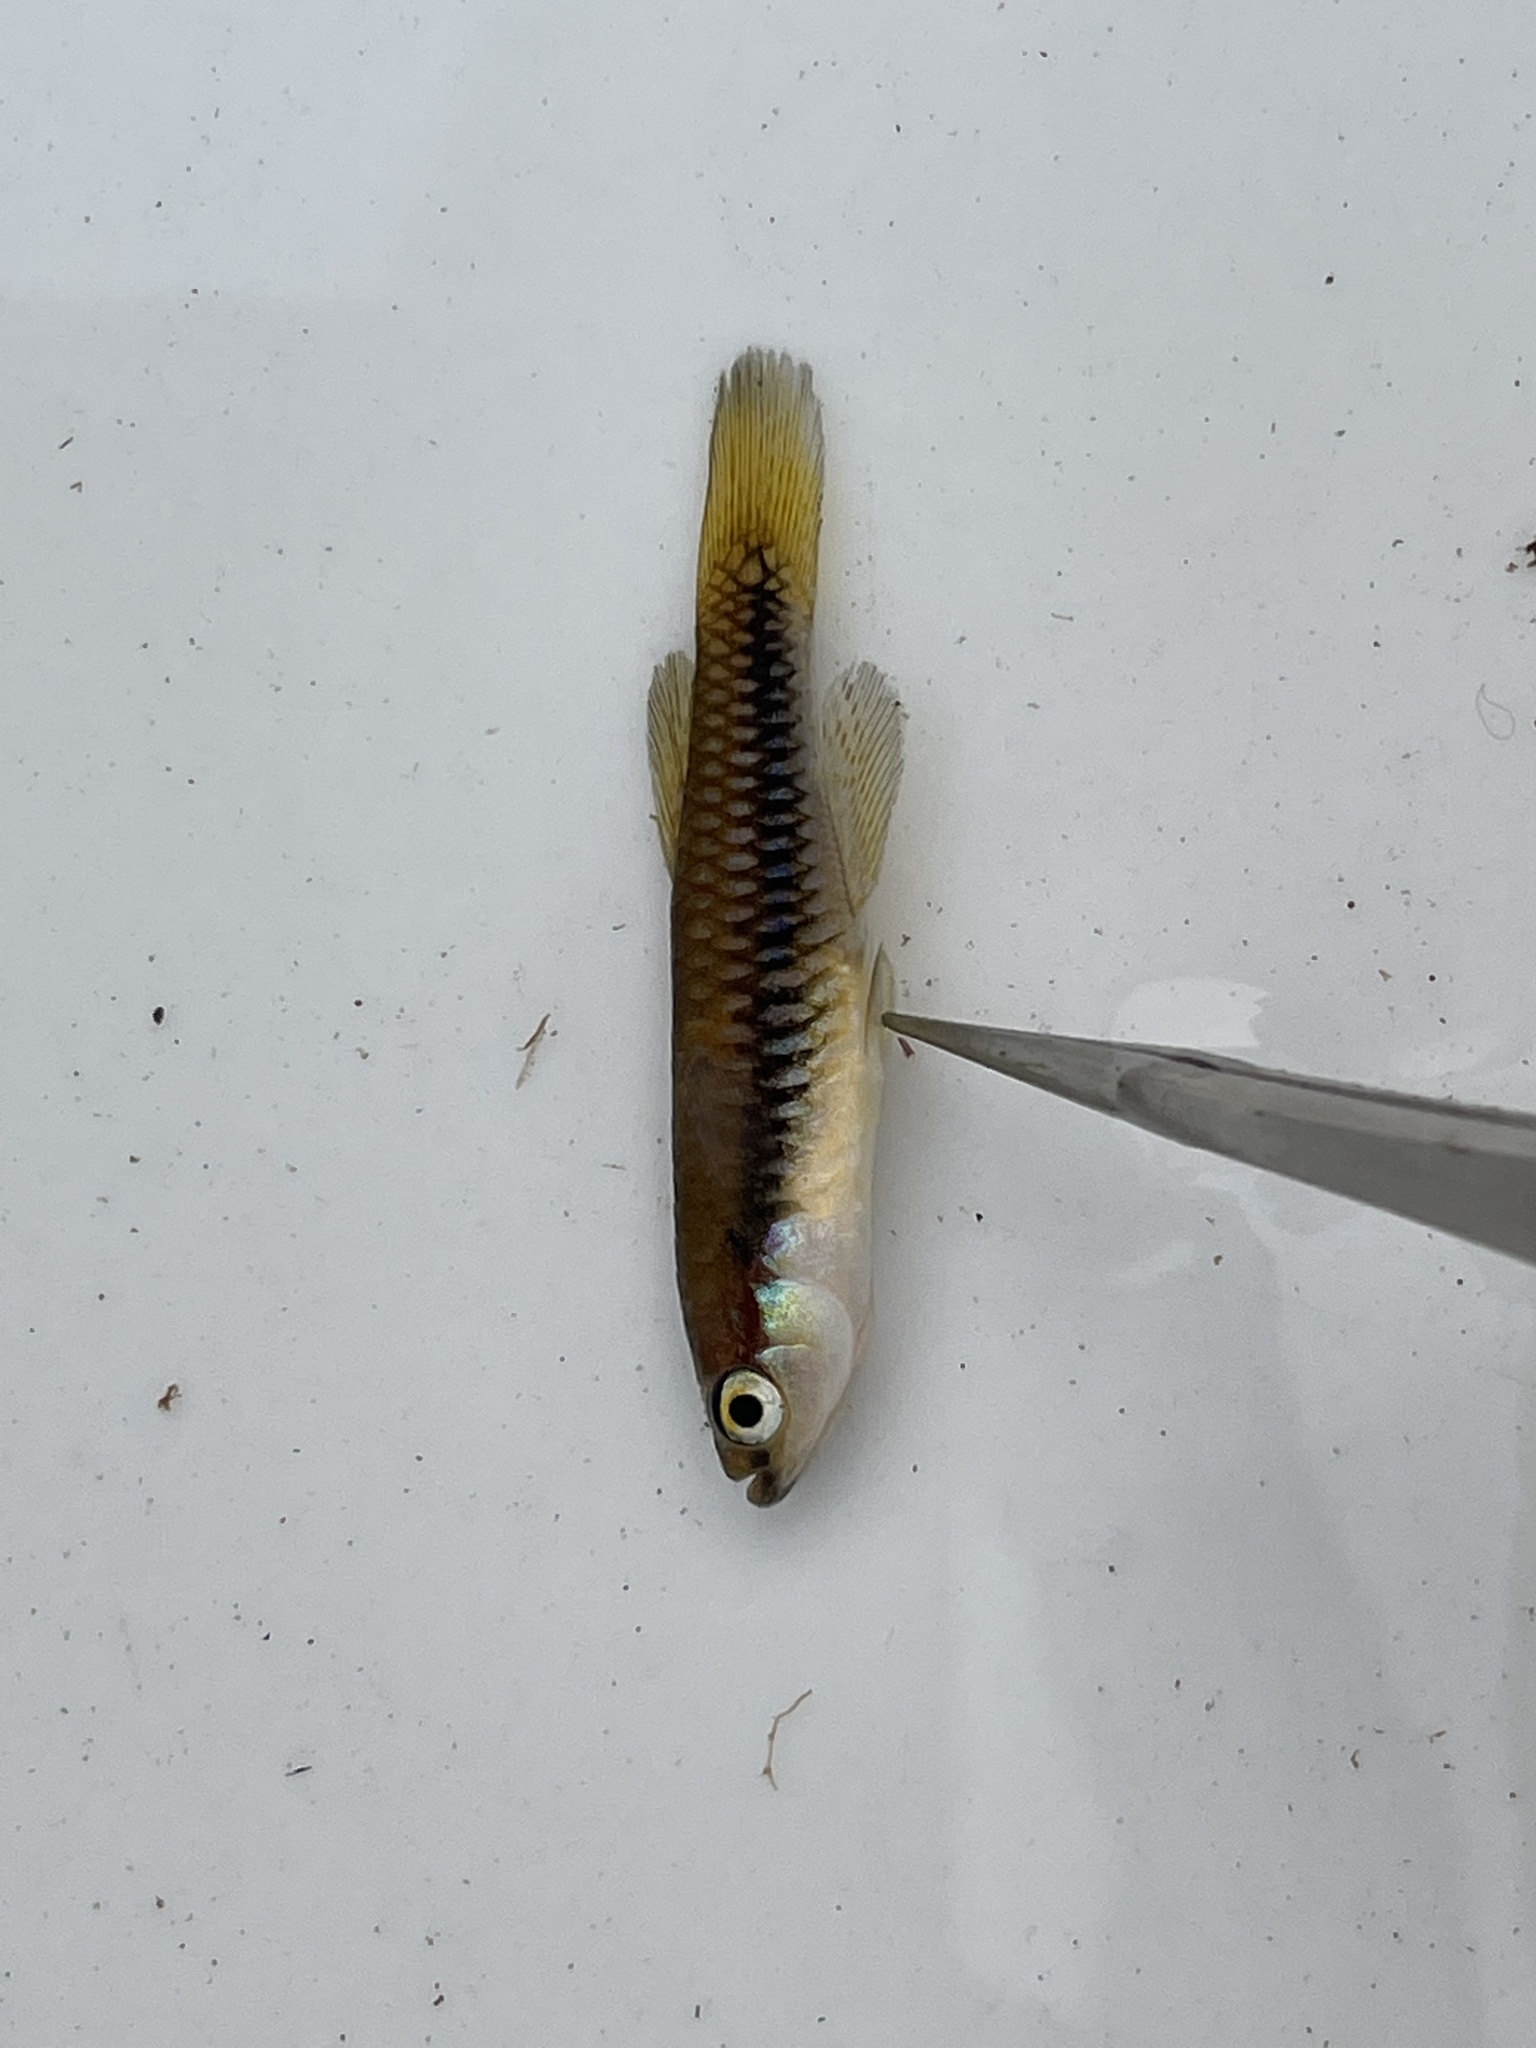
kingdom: Animalia
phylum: Chordata
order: Cyprinodontiformes
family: Poeciliidae
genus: Lacustricola
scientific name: Lacustricola katangae
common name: Striped topminnow
